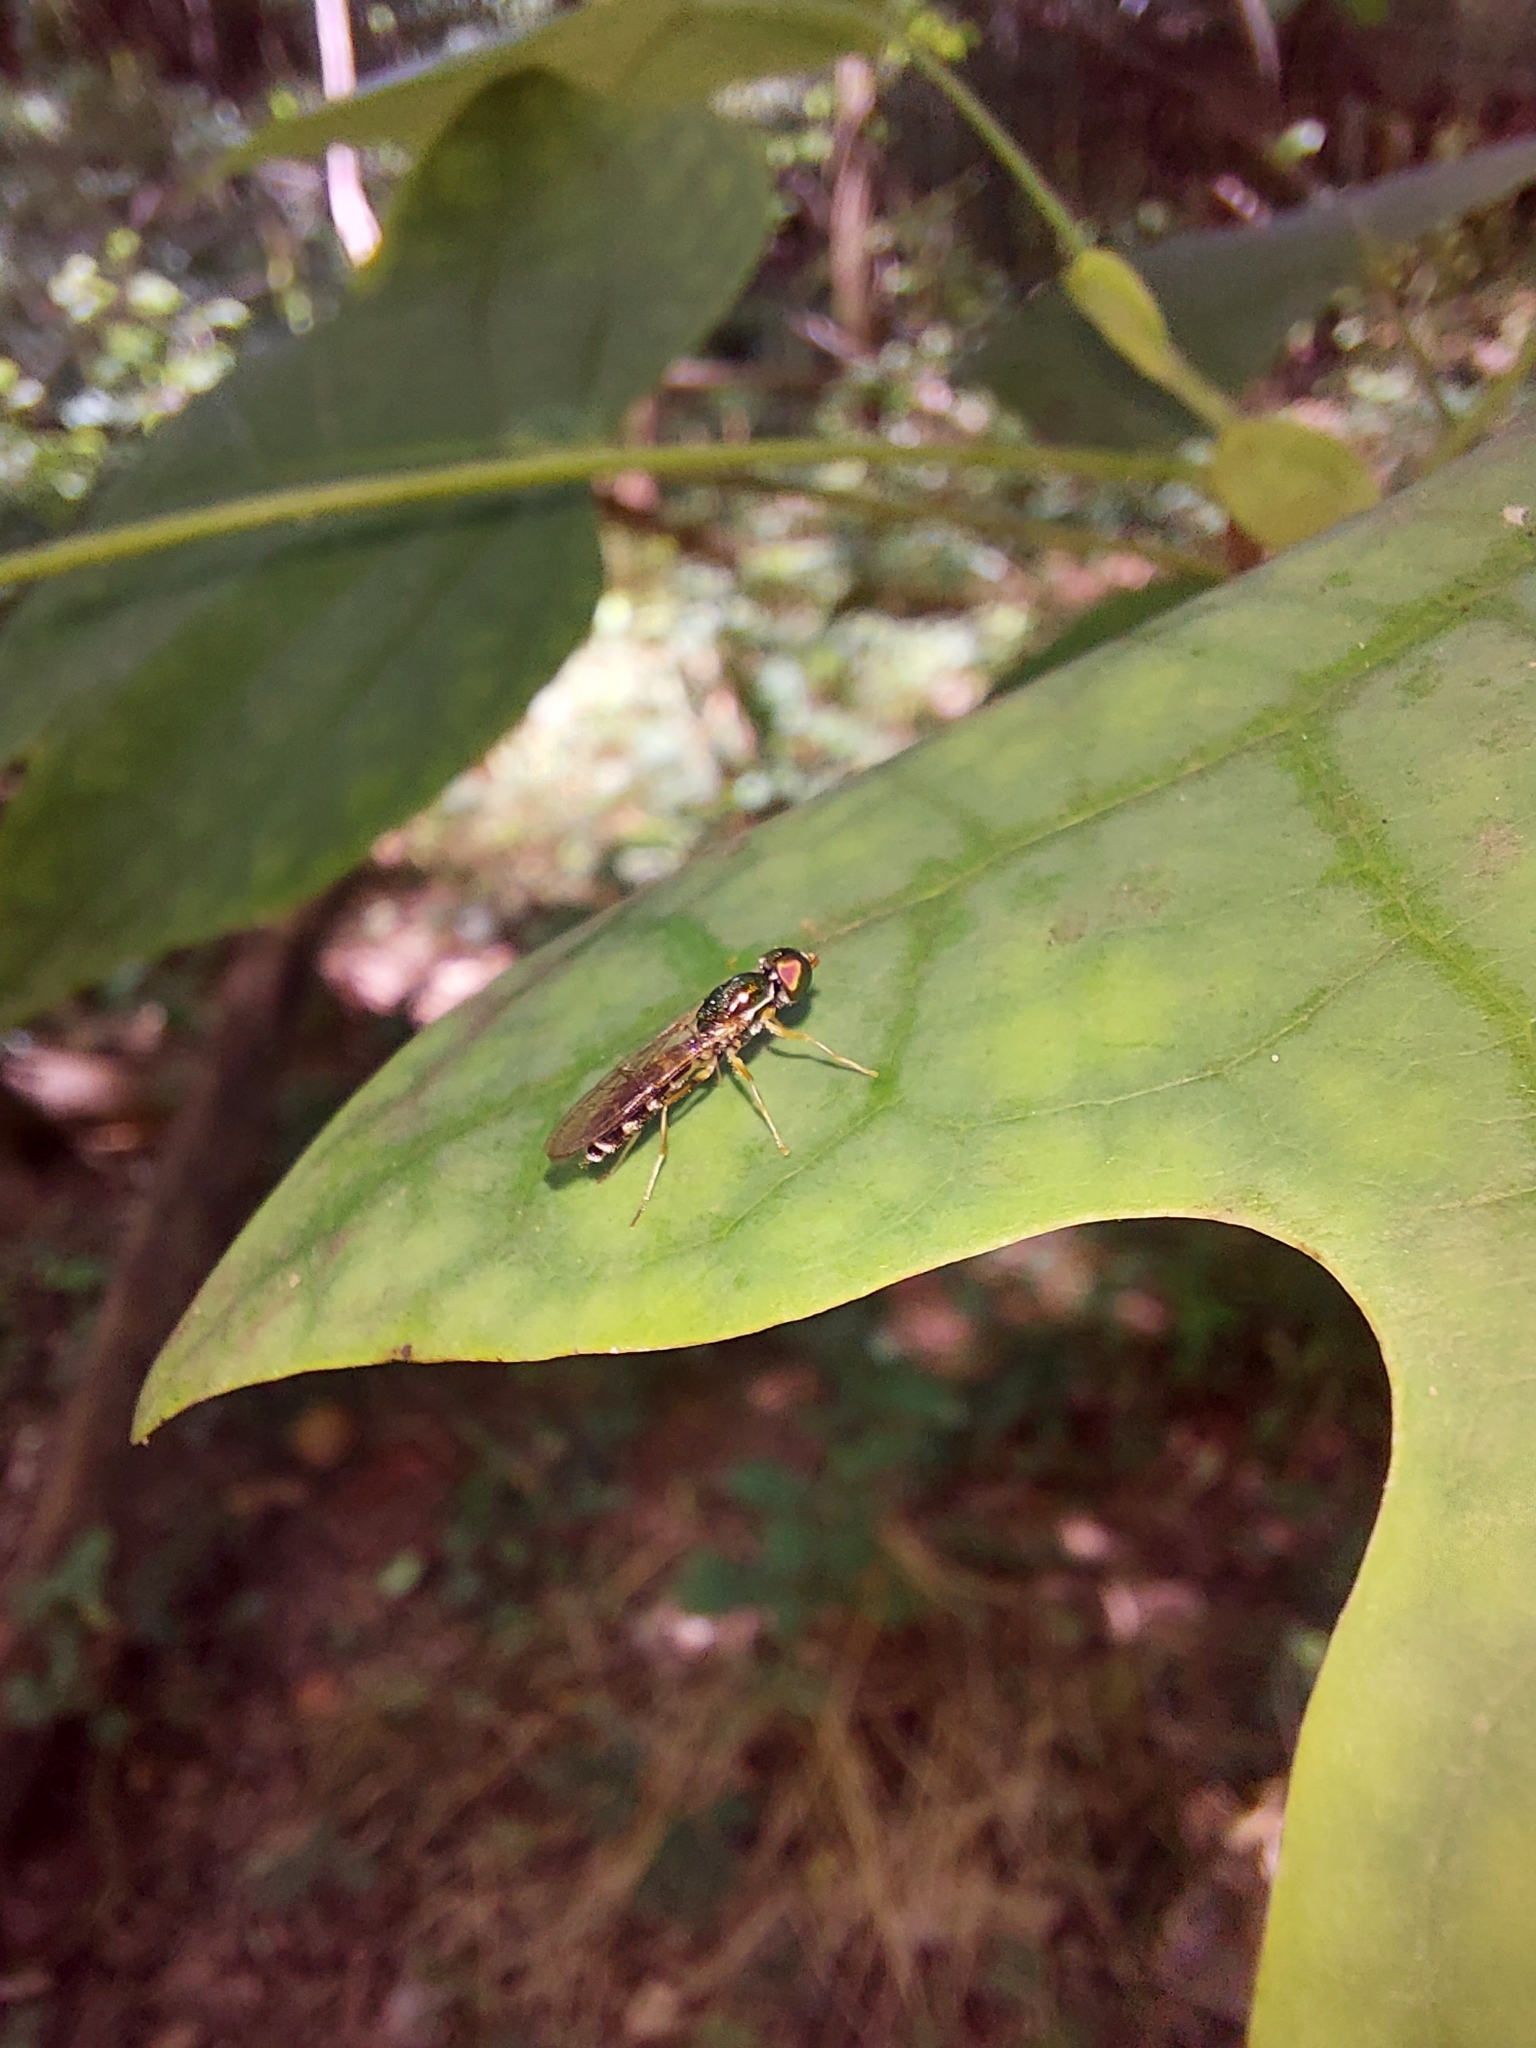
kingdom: Animalia
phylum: Arthropoda
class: Insecta
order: Diptera
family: Stratiomyidae
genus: Sargus
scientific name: Sargus fasciatus
